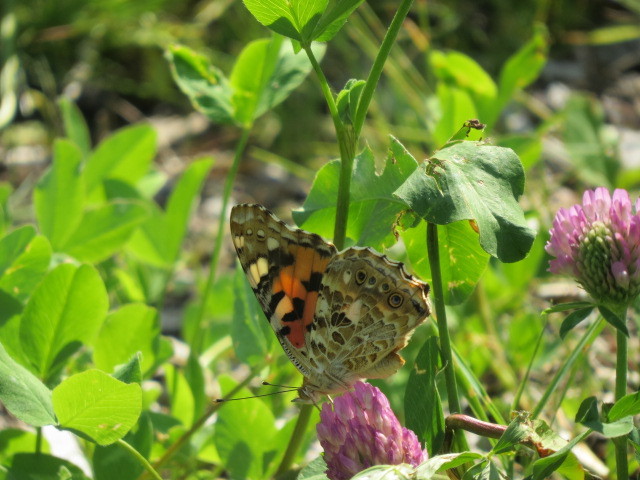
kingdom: Animalia
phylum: Arthropoda
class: Insecta
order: Lepidoptera
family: Nymphalidae
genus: Vanessa
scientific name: Vanessa cardui
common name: Painted lady
